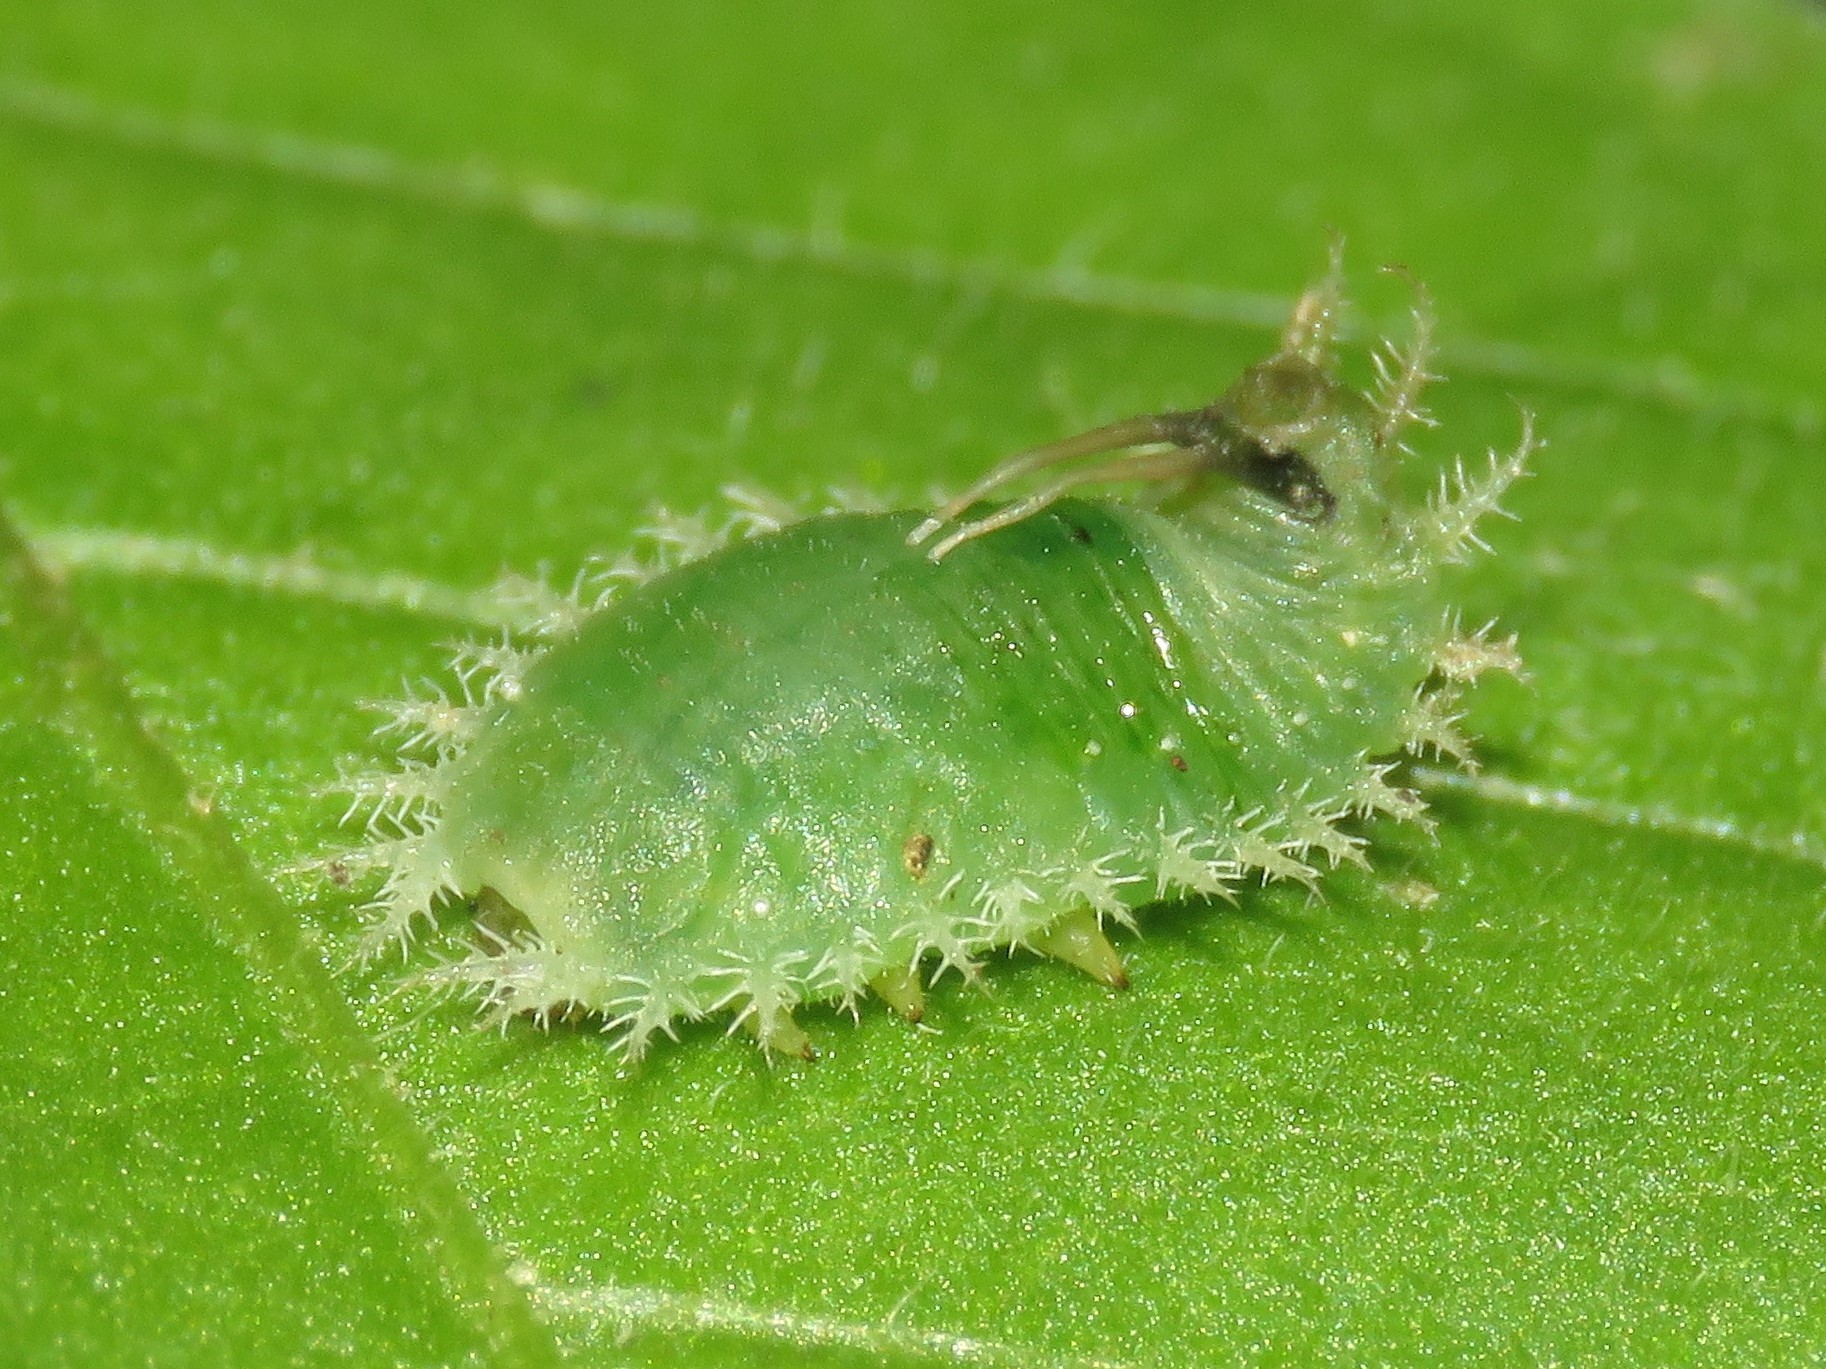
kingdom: Animalia
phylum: Arthropoda
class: Insecta
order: Coleoptera
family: Chrysomelidae
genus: Helocassis
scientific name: Helocassis clavata
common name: Clavate tortoise beetle
